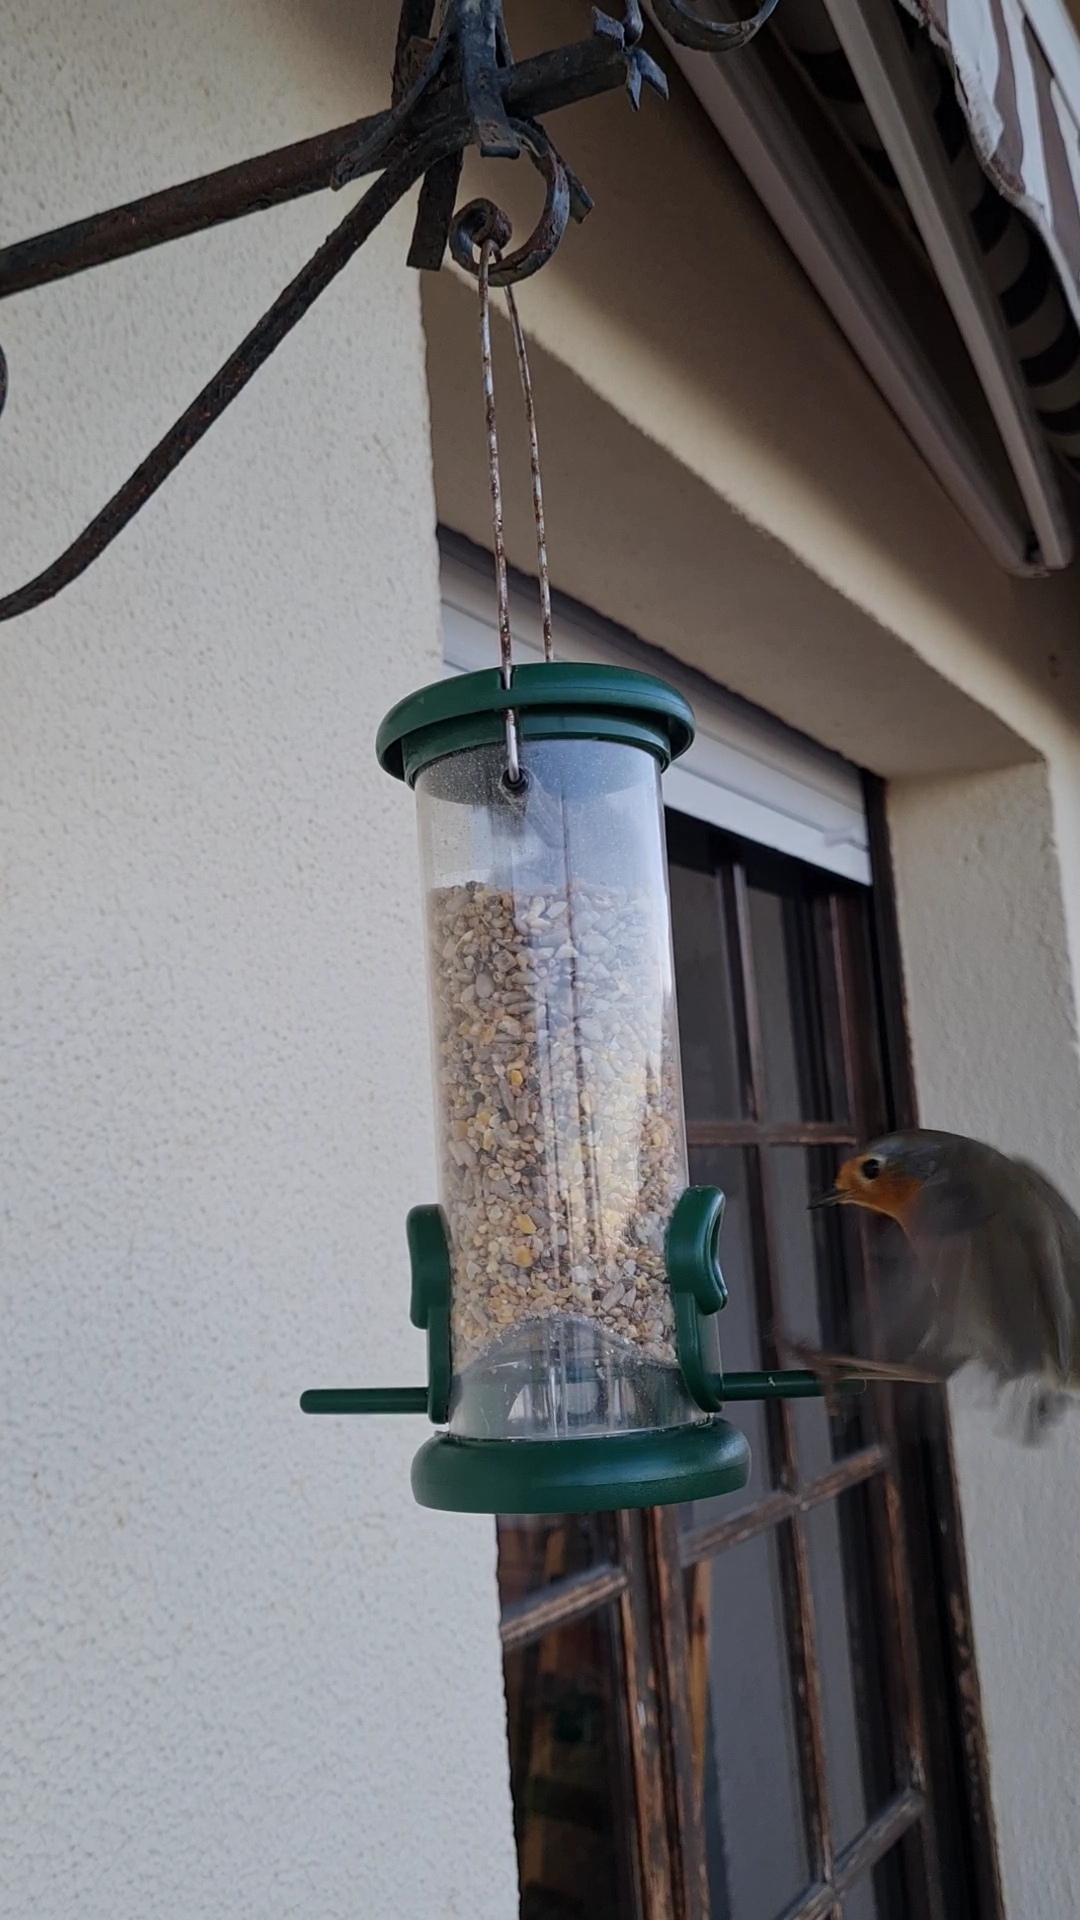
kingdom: Animalia
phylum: Chordata
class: Aves
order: Passeriformes
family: Muscicapidae
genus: Erithacus
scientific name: Erithacus rubecula
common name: European robin
